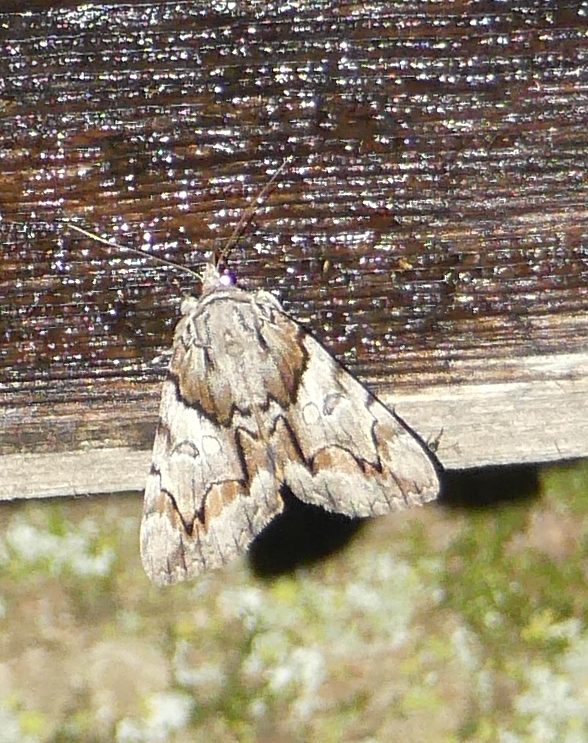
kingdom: Animalia
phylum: Arthropoda
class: Insecta
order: Lepidoptera
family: Erebidae
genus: Catocala
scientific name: Catocala blandula
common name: Charming underwing
